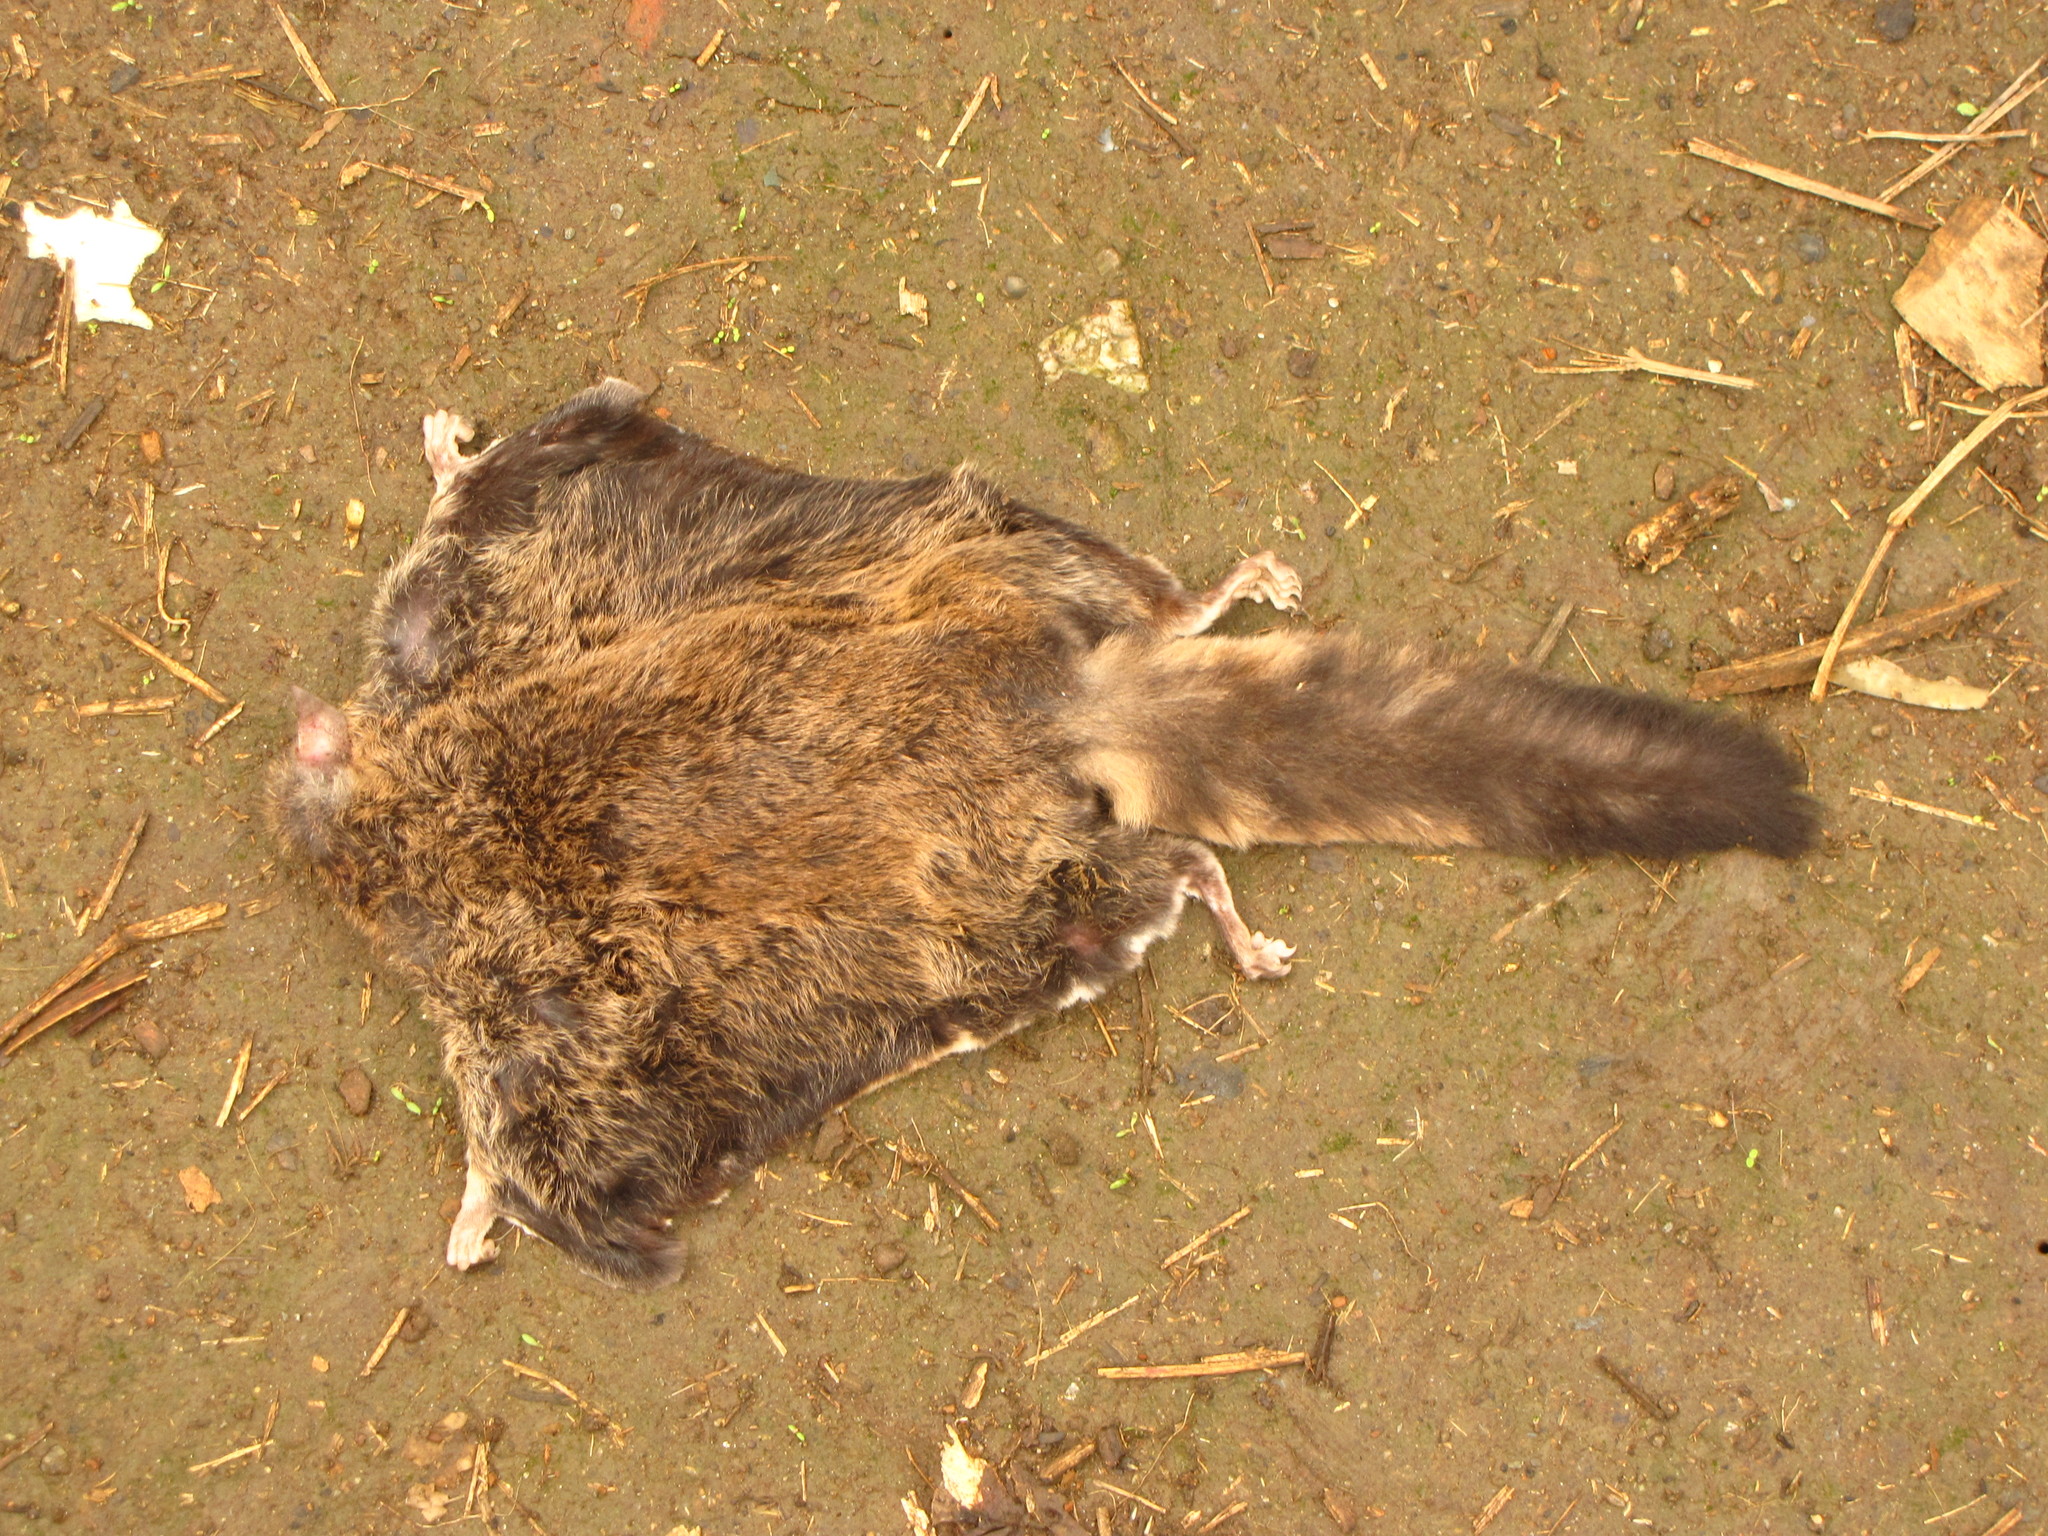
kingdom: Animalia
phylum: Chordata
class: Mammalia
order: Rodentia
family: Sciuridae
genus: Hylopetes
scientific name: Hylopetes alboniger
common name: Particolored flying squirrel
